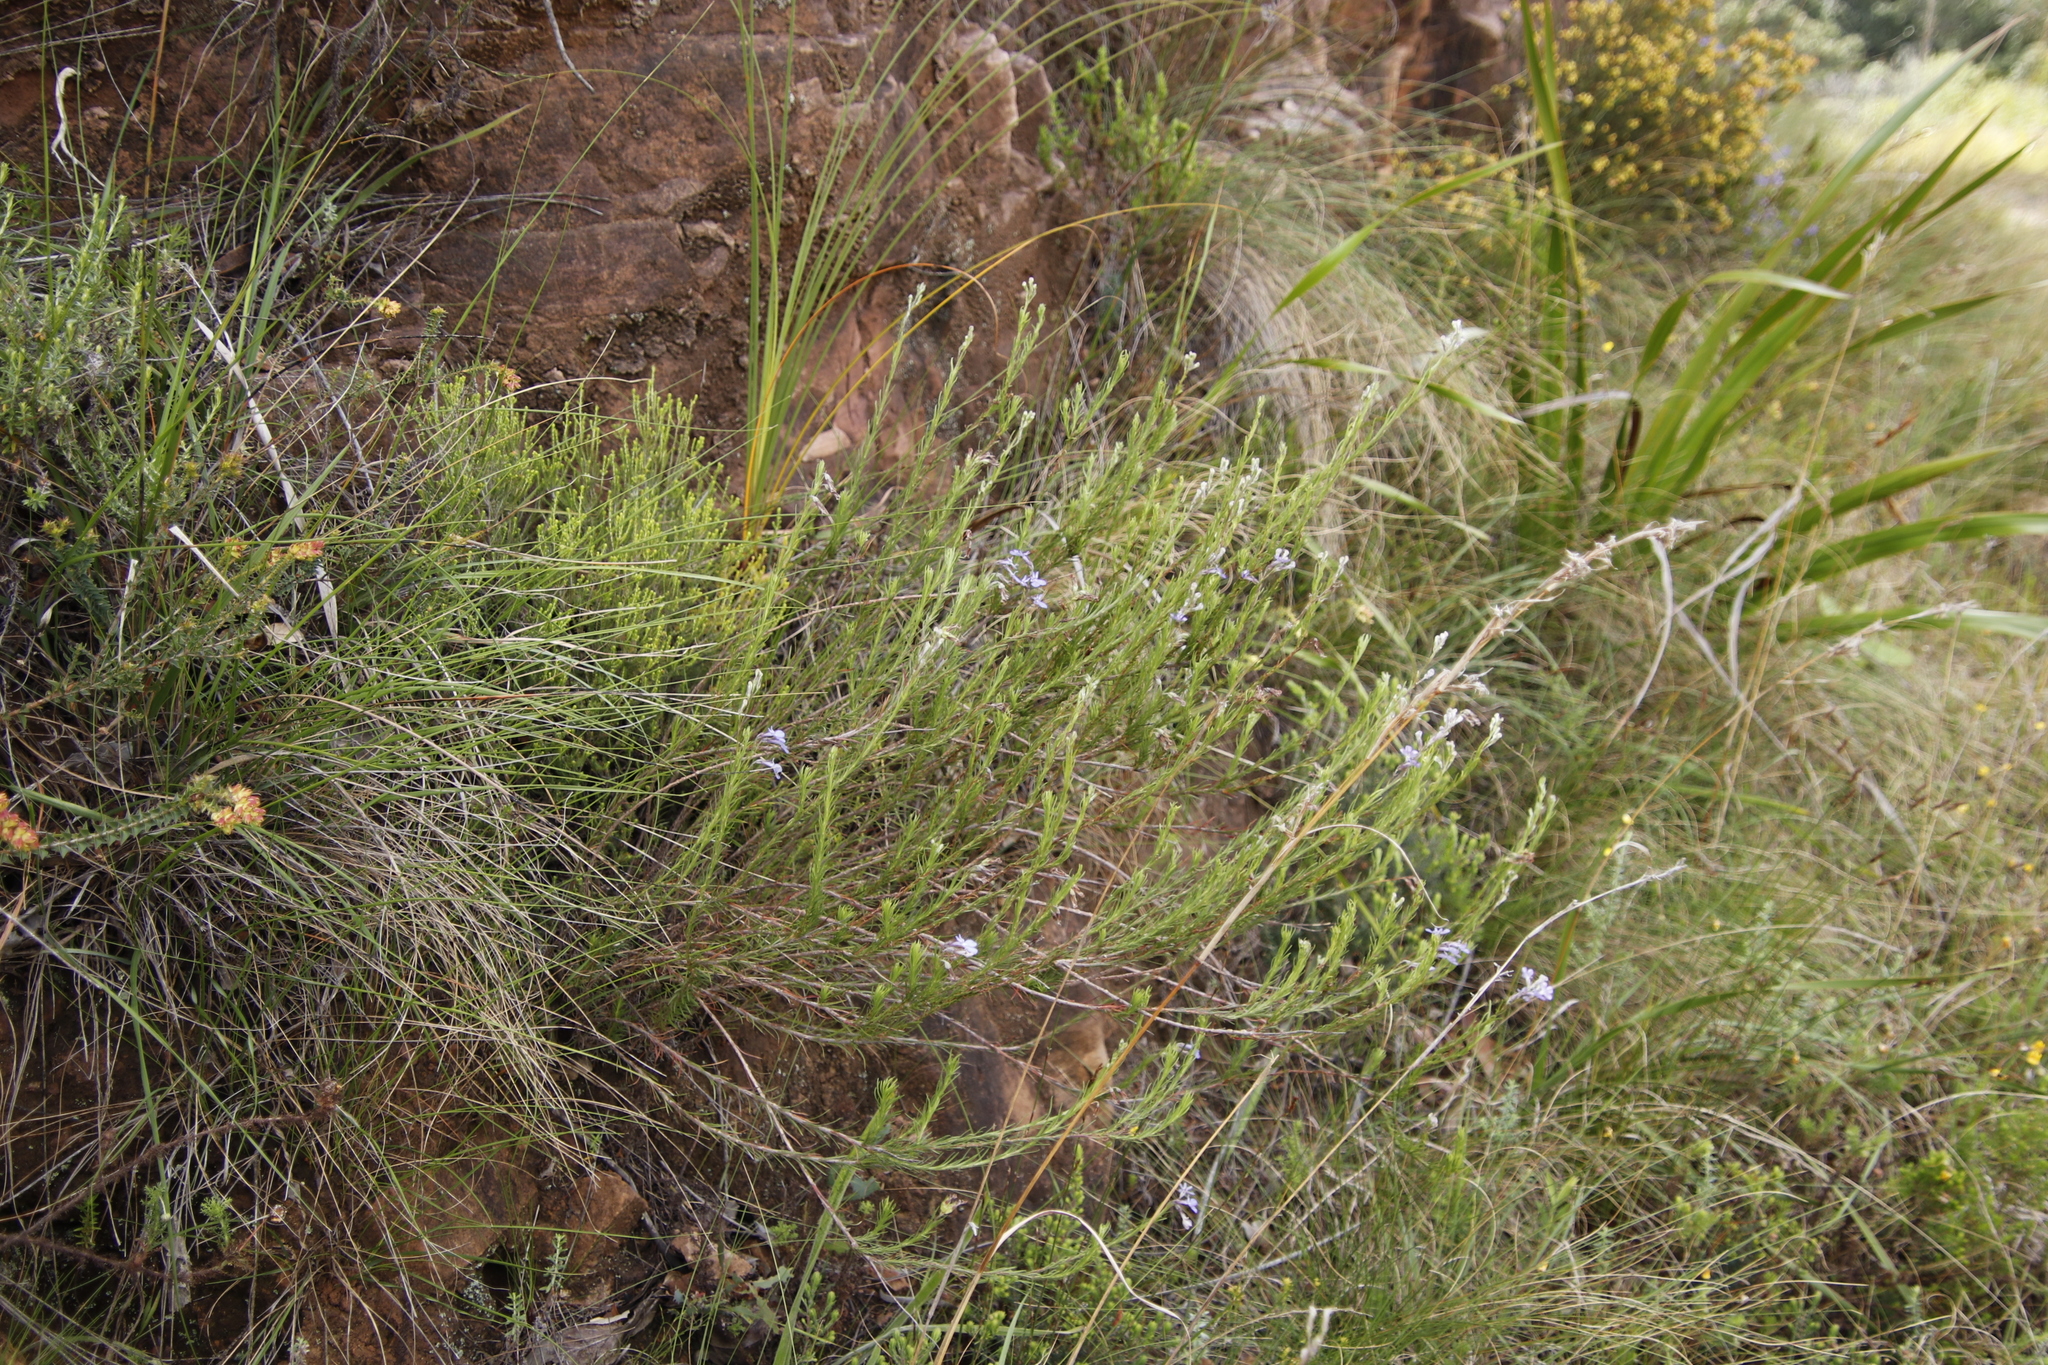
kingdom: Plantae
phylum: Tracheophyta
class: Magnoliopsida
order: Asterales
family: Campanulaceae
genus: Lobelia
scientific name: Lobelia pinifolia
